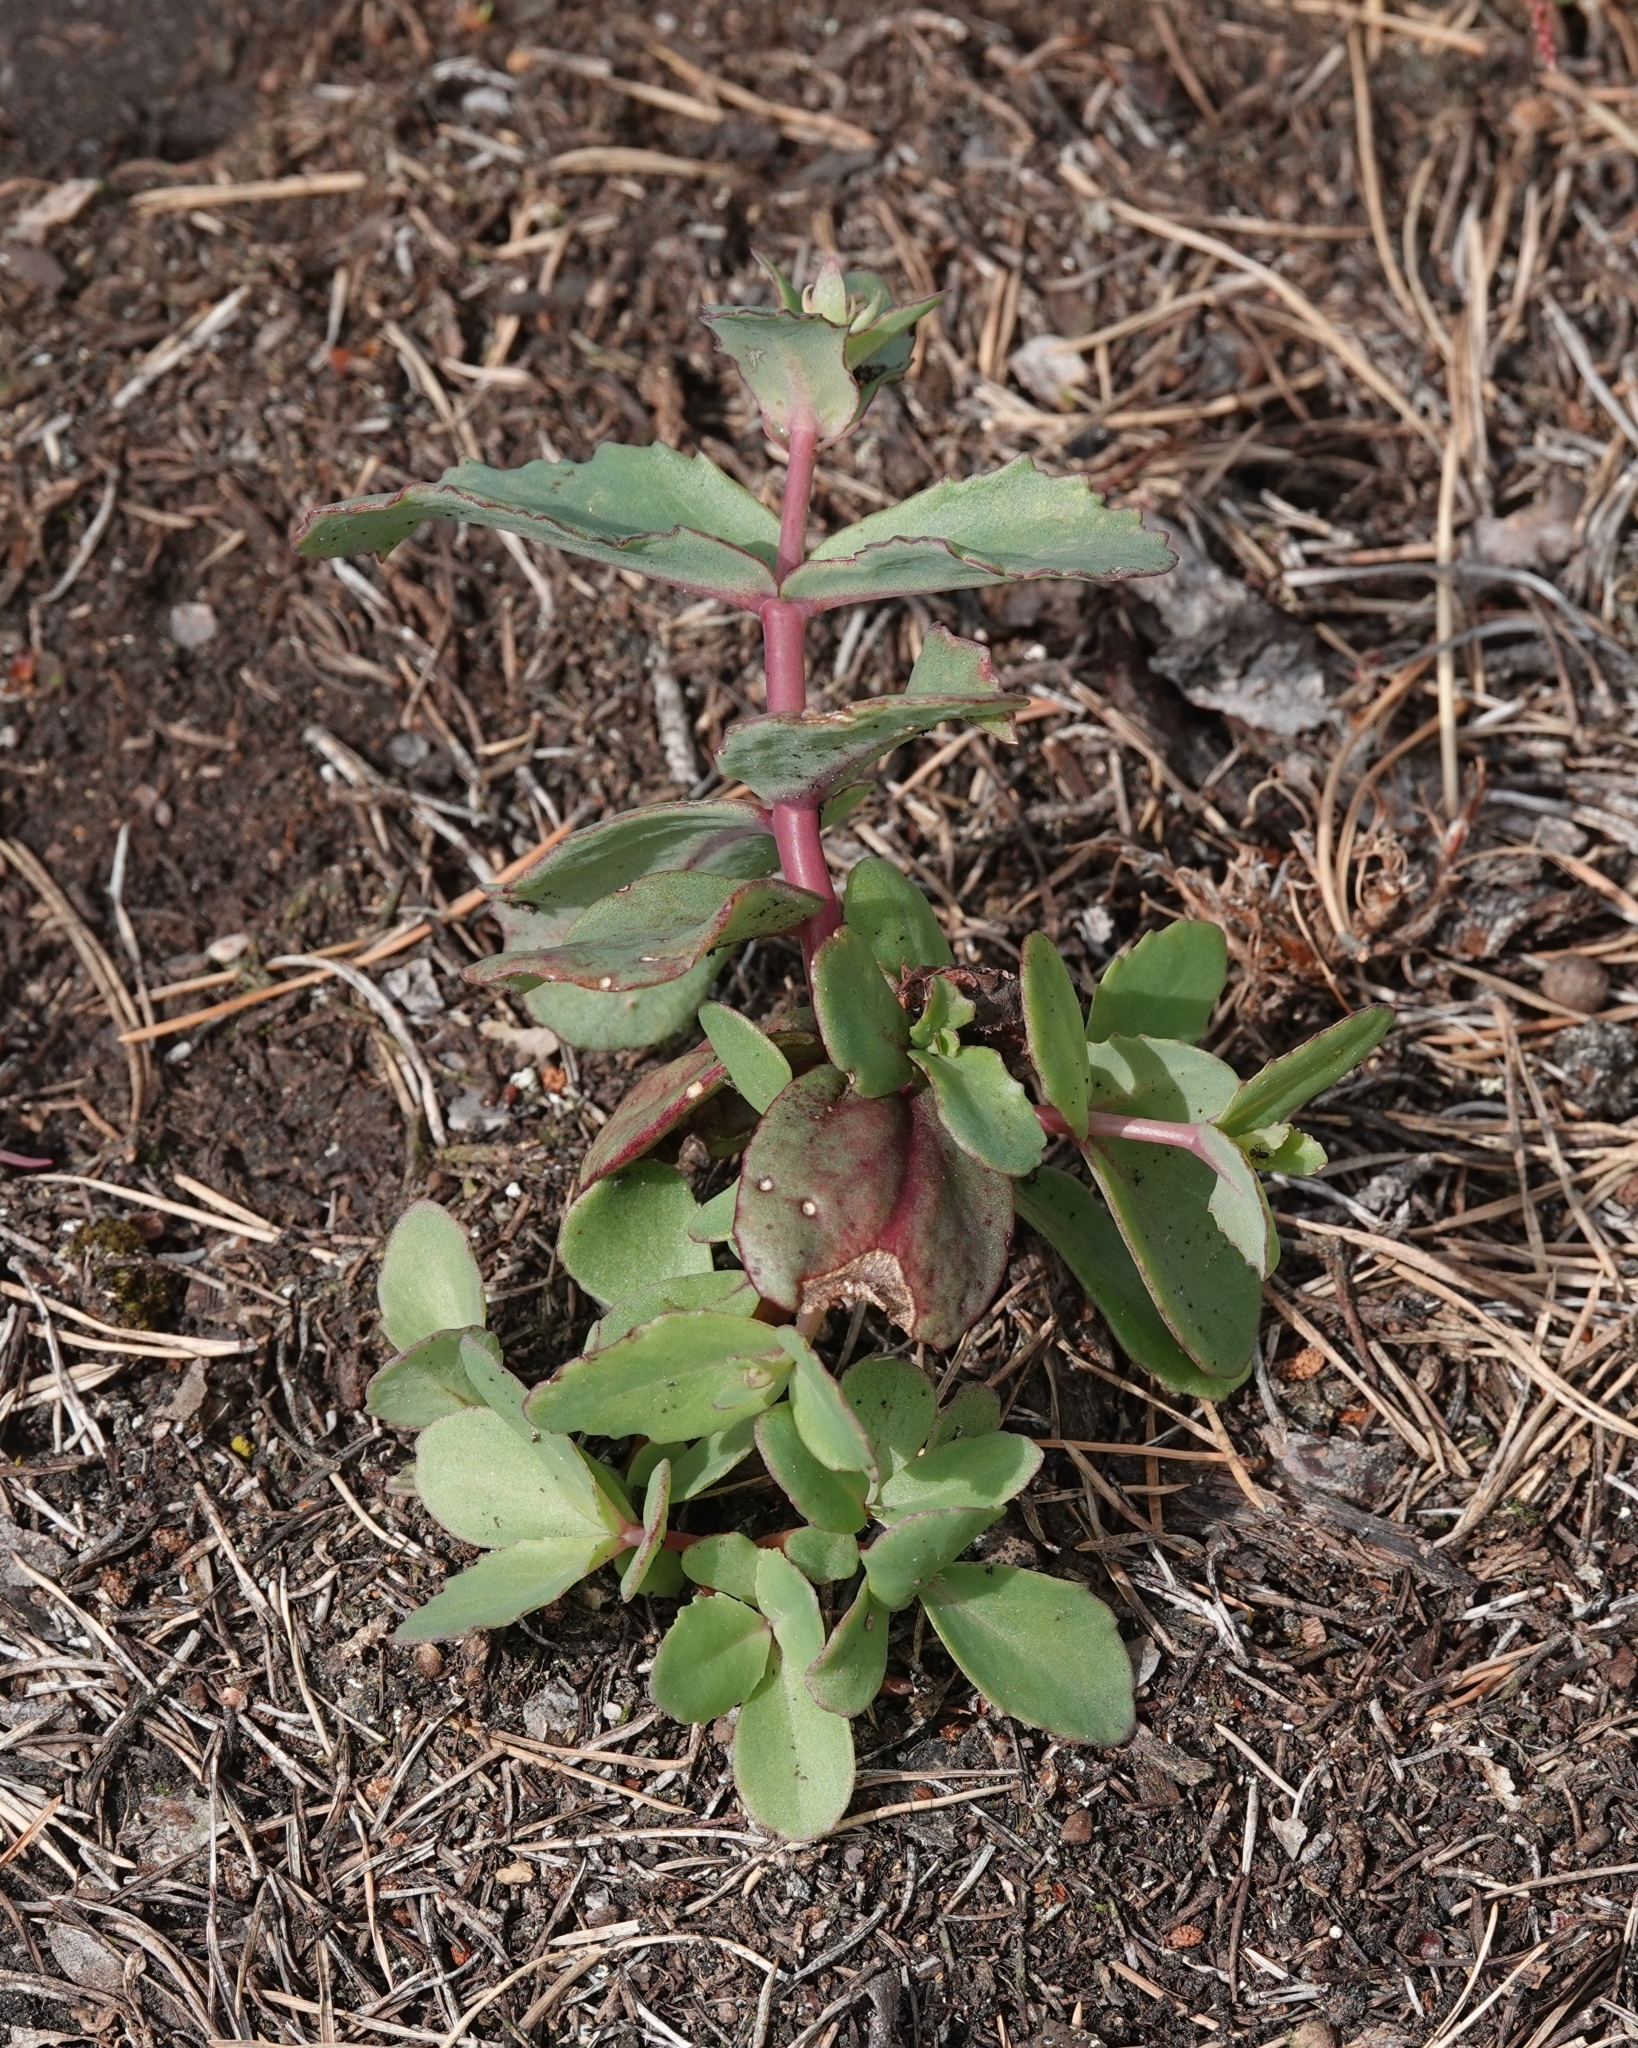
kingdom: Plantae
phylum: Tracheophyta
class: Magnoliopsida
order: Saxifragales
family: Crassulaceae
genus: Hylotelephium
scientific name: Hylotelephium maximum
